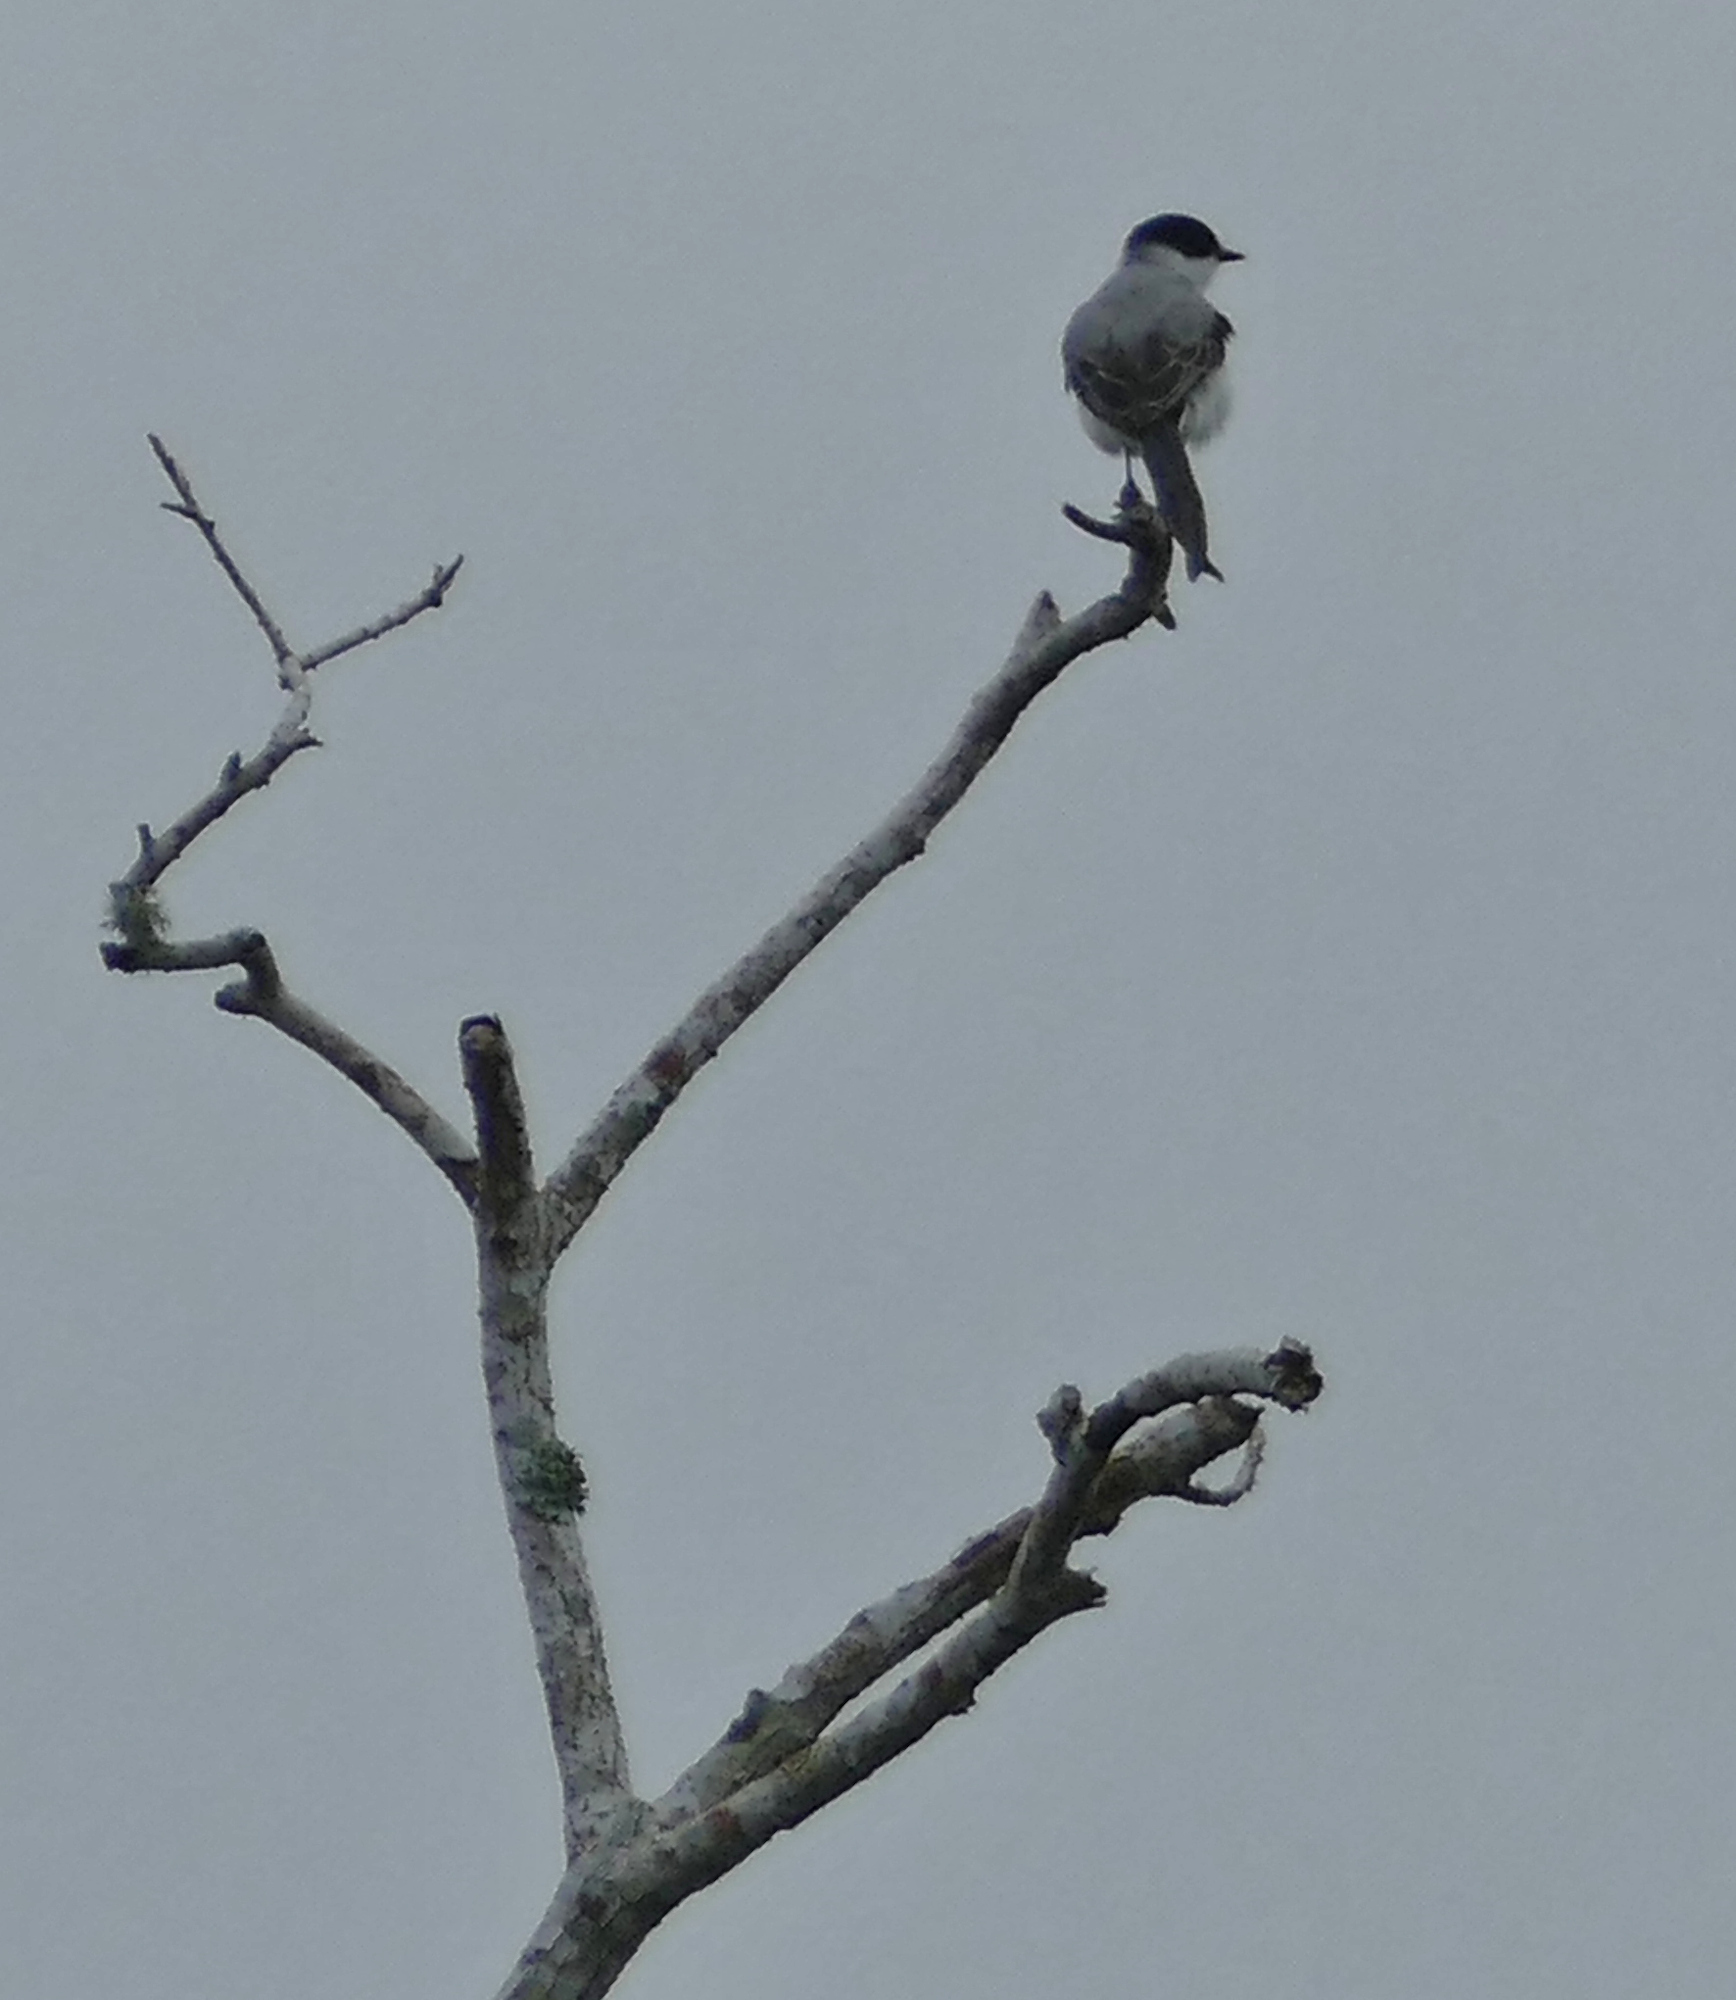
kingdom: Animalia
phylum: Chordata
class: Aves
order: Passeriformes
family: Tyrannidae
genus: Tyrannus
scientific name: Tyrannus savana
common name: Fork-tailed flycatcher
